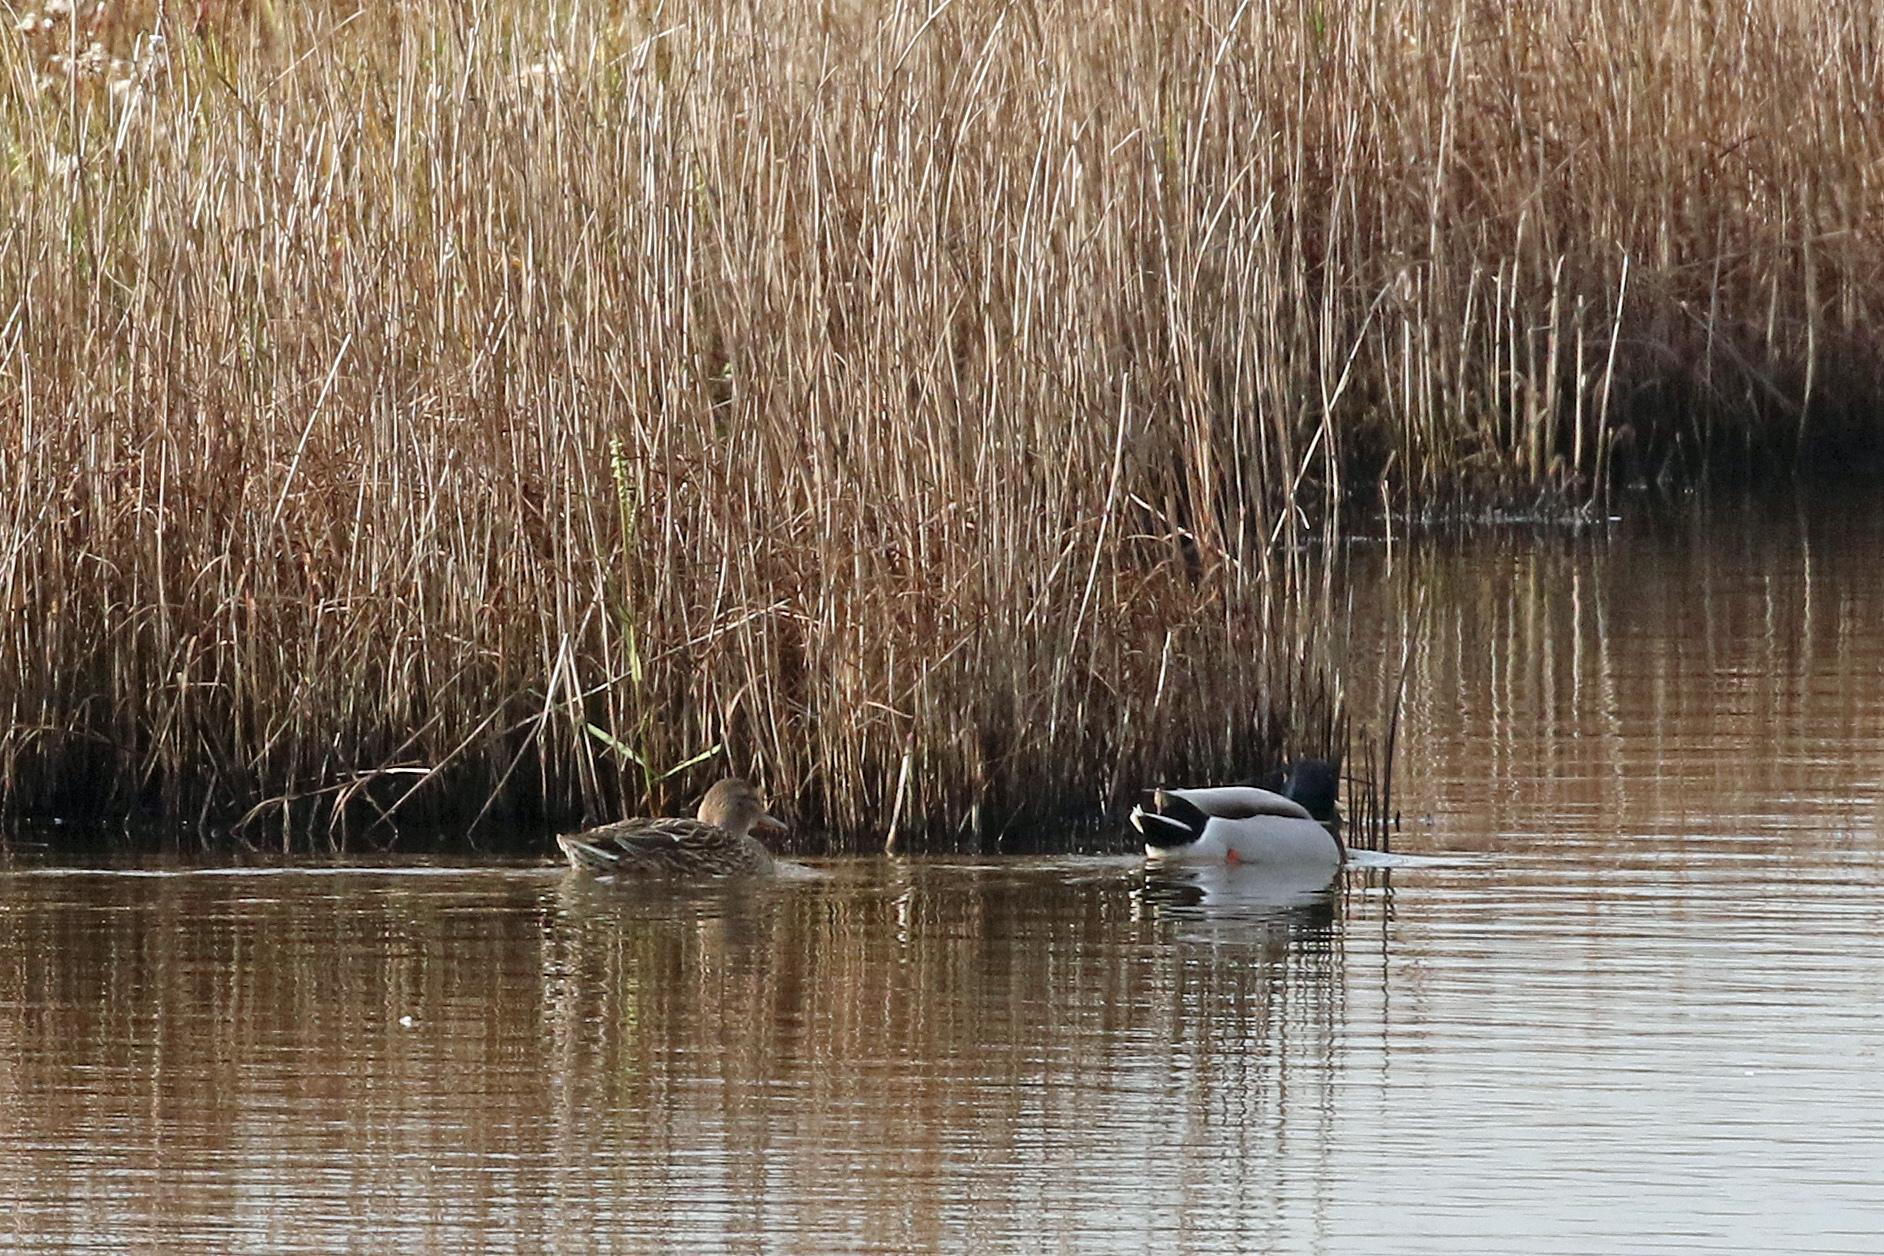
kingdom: Animalia
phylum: Chordata
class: Aves
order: Anseriformes
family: Anatidae
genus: Anas
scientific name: Anas platyrhynchos
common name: Mallard
